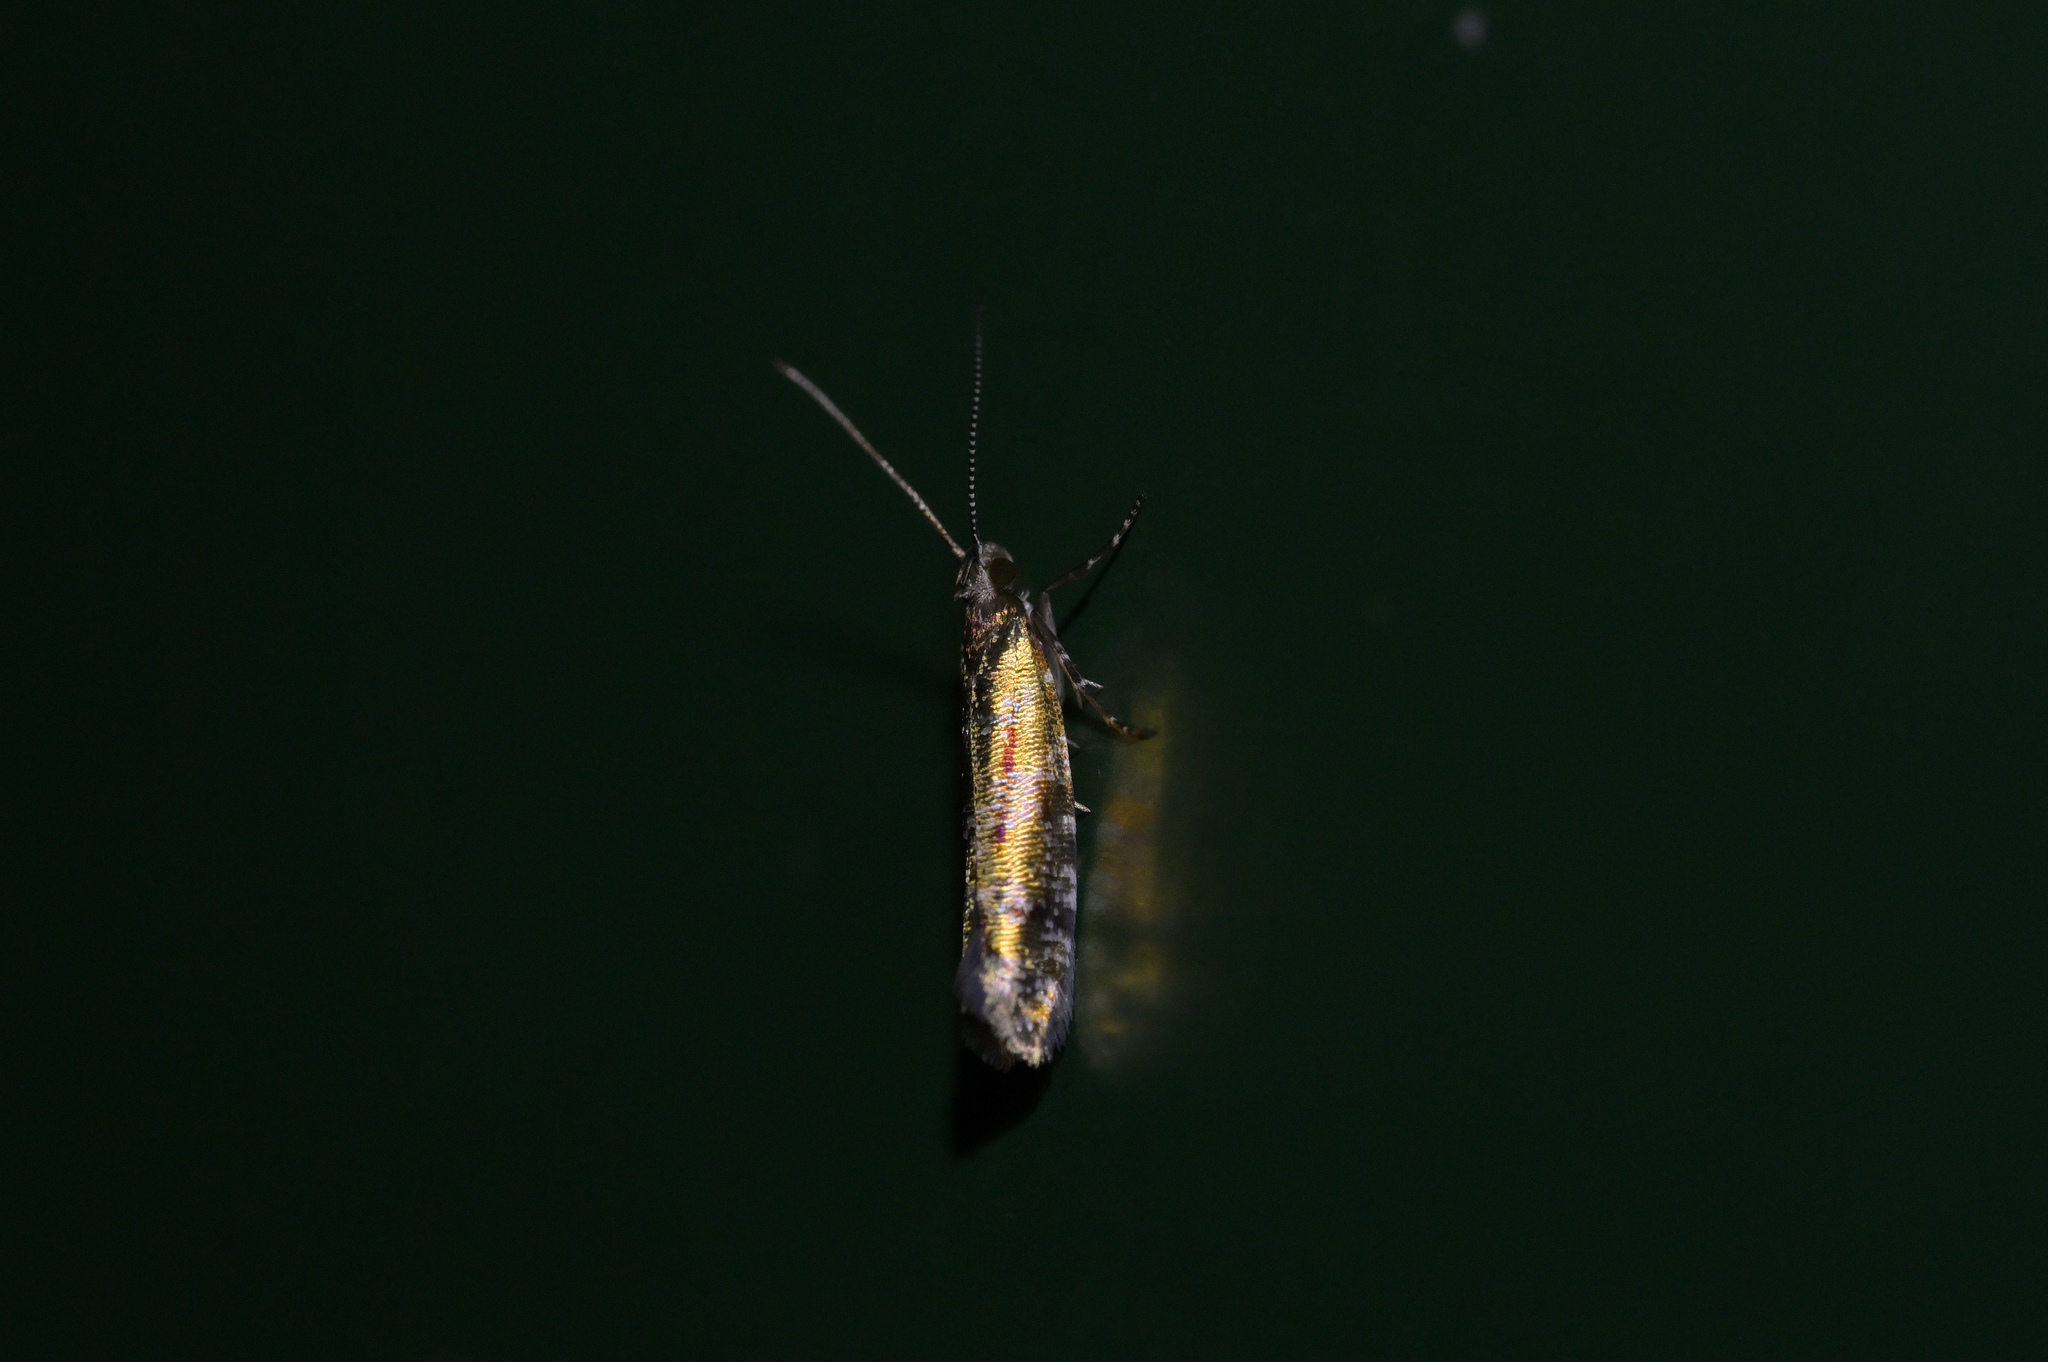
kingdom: Animalia
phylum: Arthropoda
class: Insecta
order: Lepidoptera
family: Glyphipterigidae
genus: Chrysorthenches
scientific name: Chrysorthenches drosochalca
